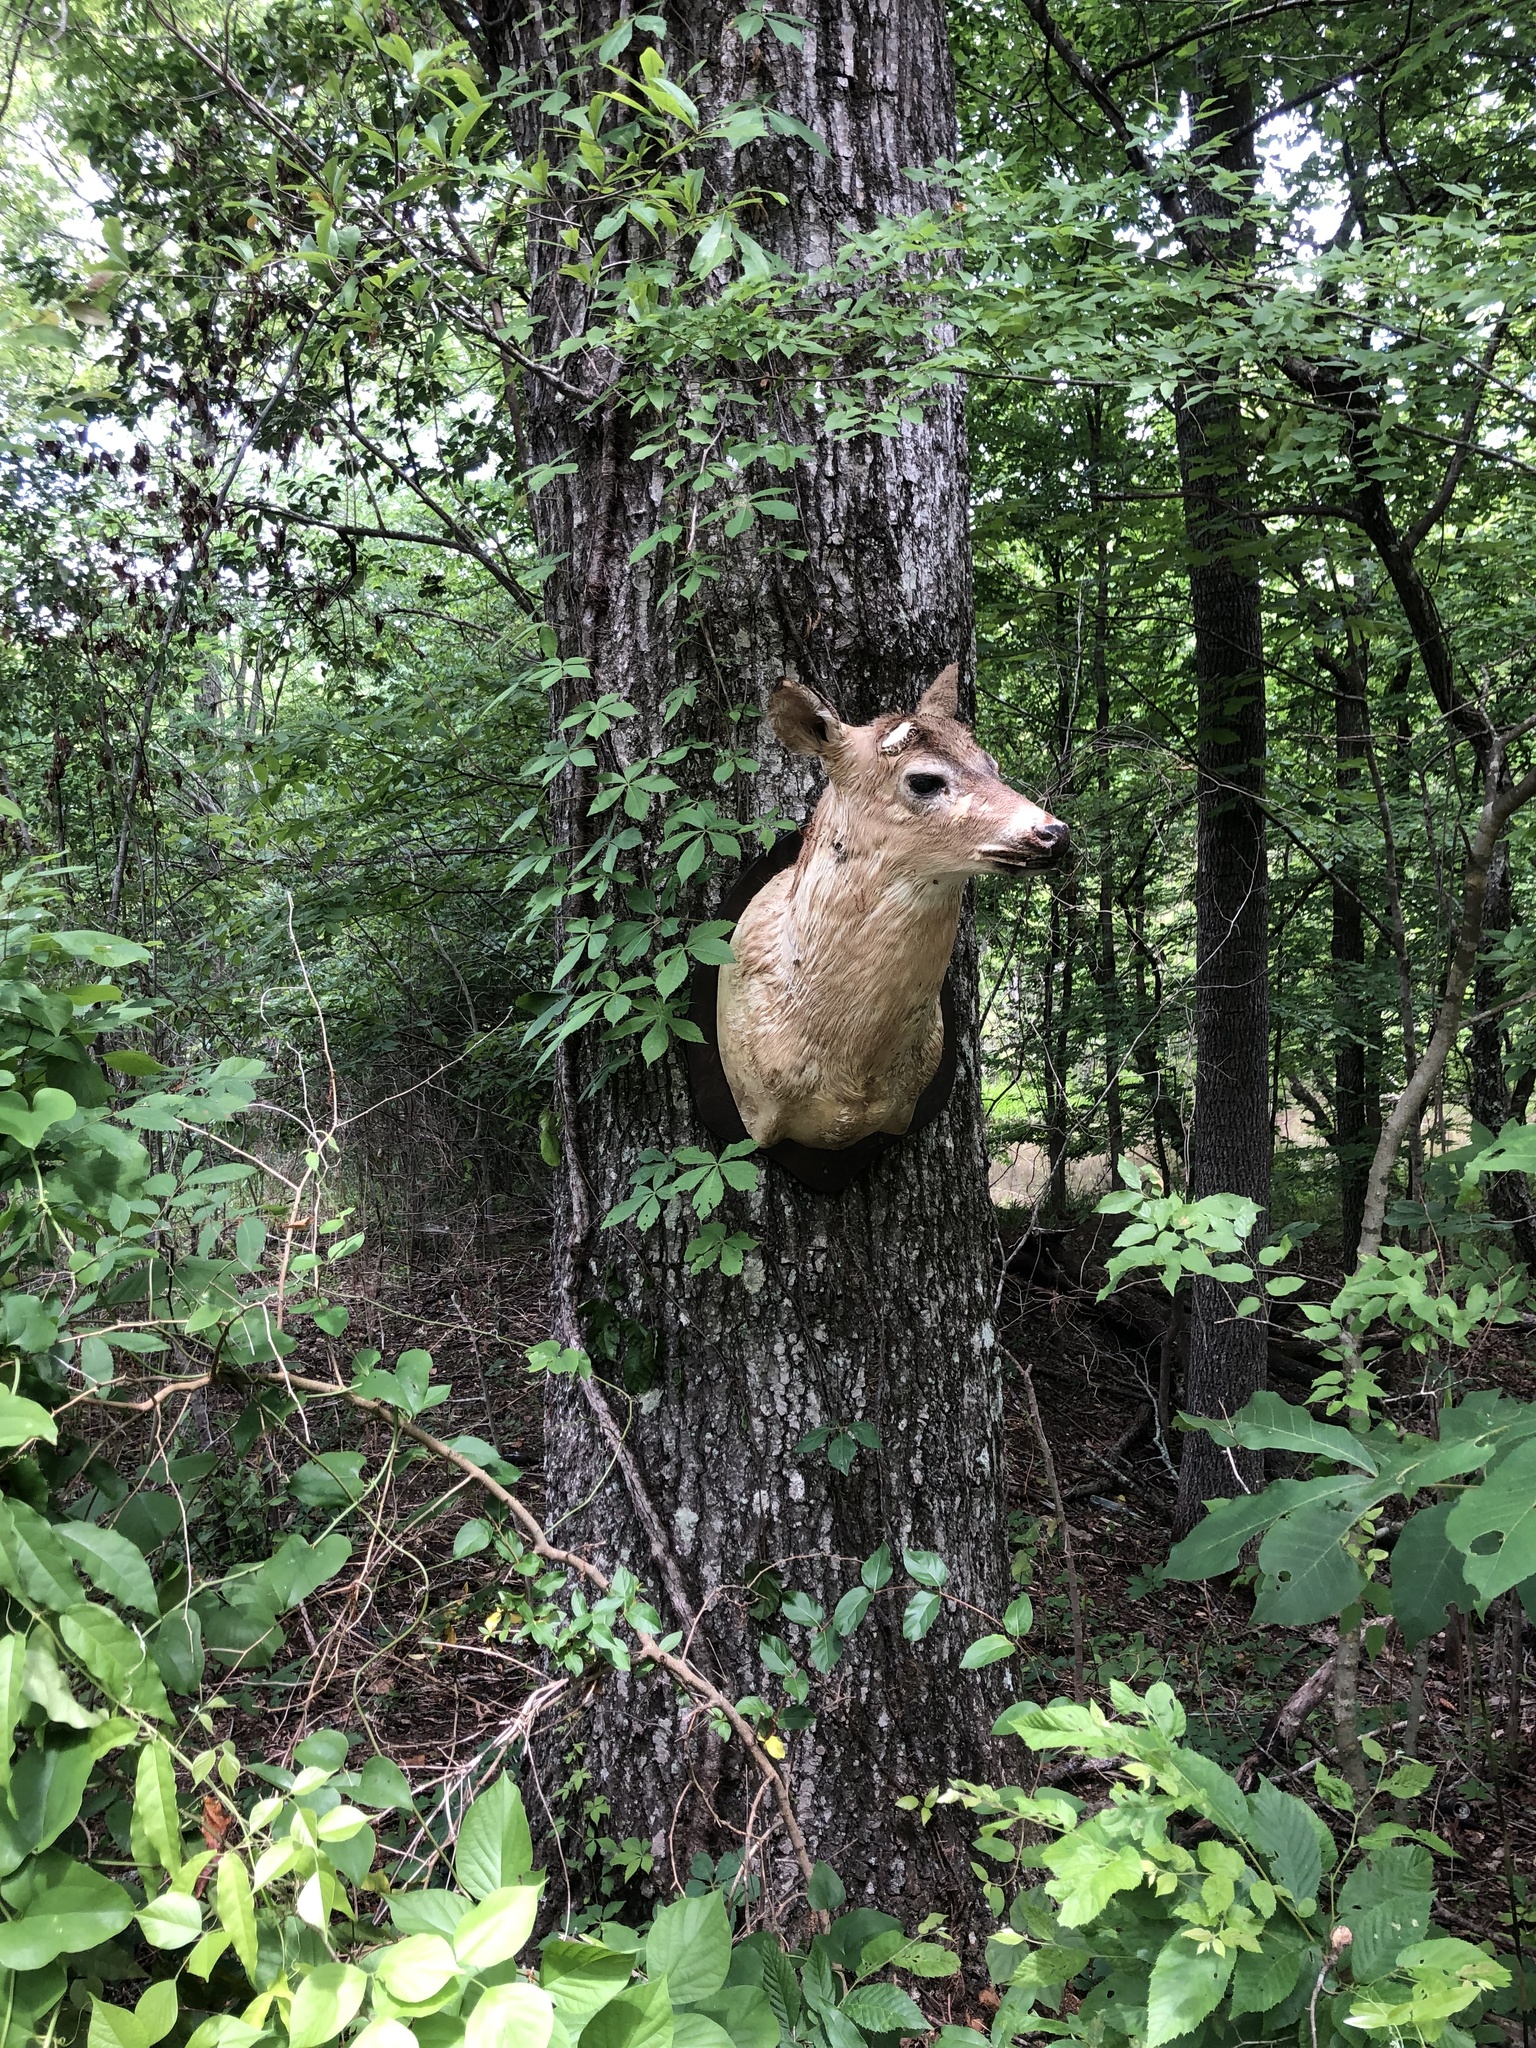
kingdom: Plantae
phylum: Tracheophyta
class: Magnoliopsida
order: Lamiales
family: Plantaginaceae
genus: Penstemon
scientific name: Penstemon digitalis
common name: Foxglove beardtongue
